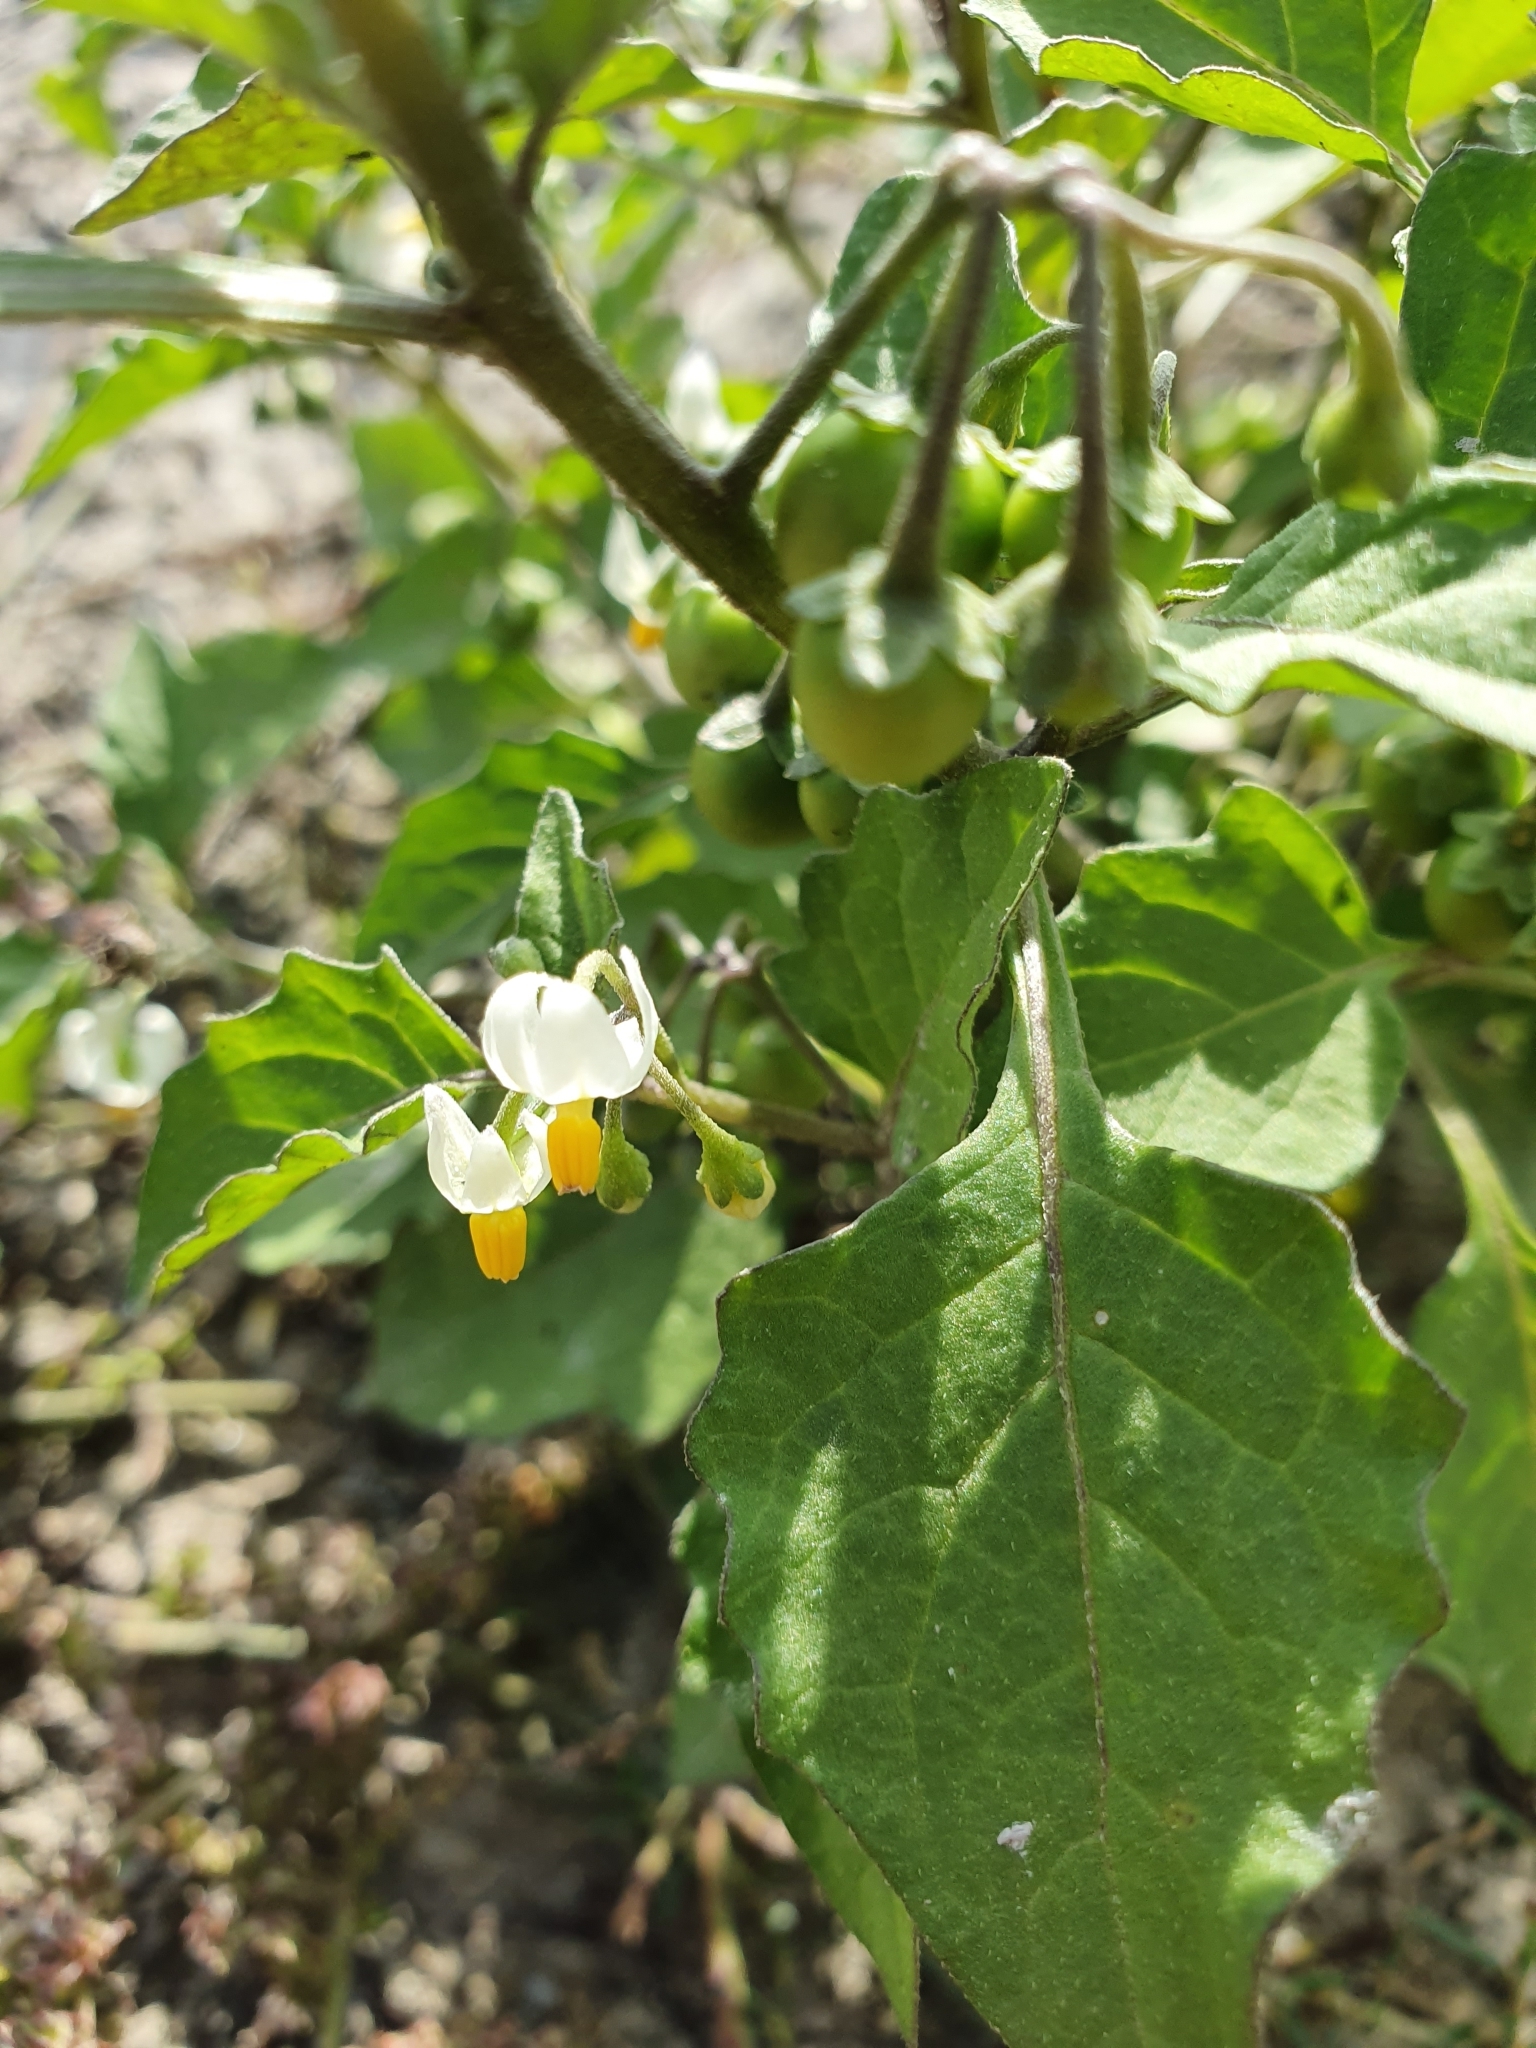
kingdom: Plantae
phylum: Tracheophyta
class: Magnoliopsida
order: Solanales
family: Solanaceae
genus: Solanum
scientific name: Solanum nigrum
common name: Black nightshade
